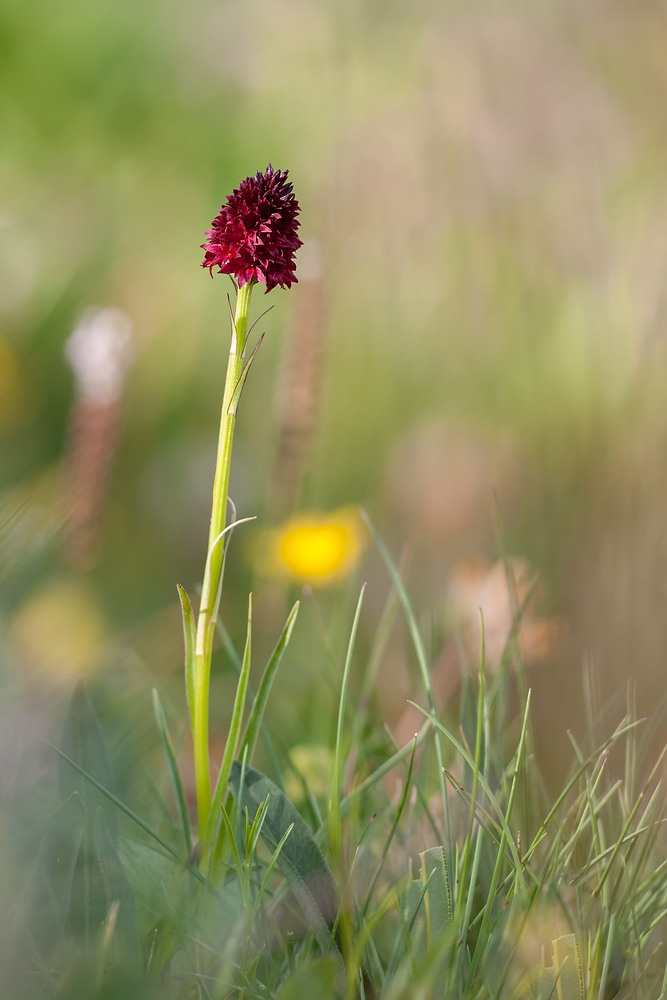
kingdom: Plantae
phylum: Tracheophyta
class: Liliopsida
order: Asparagales
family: Orchidaceae
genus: Gymnadenia
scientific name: Gymnadenia rhellicani
